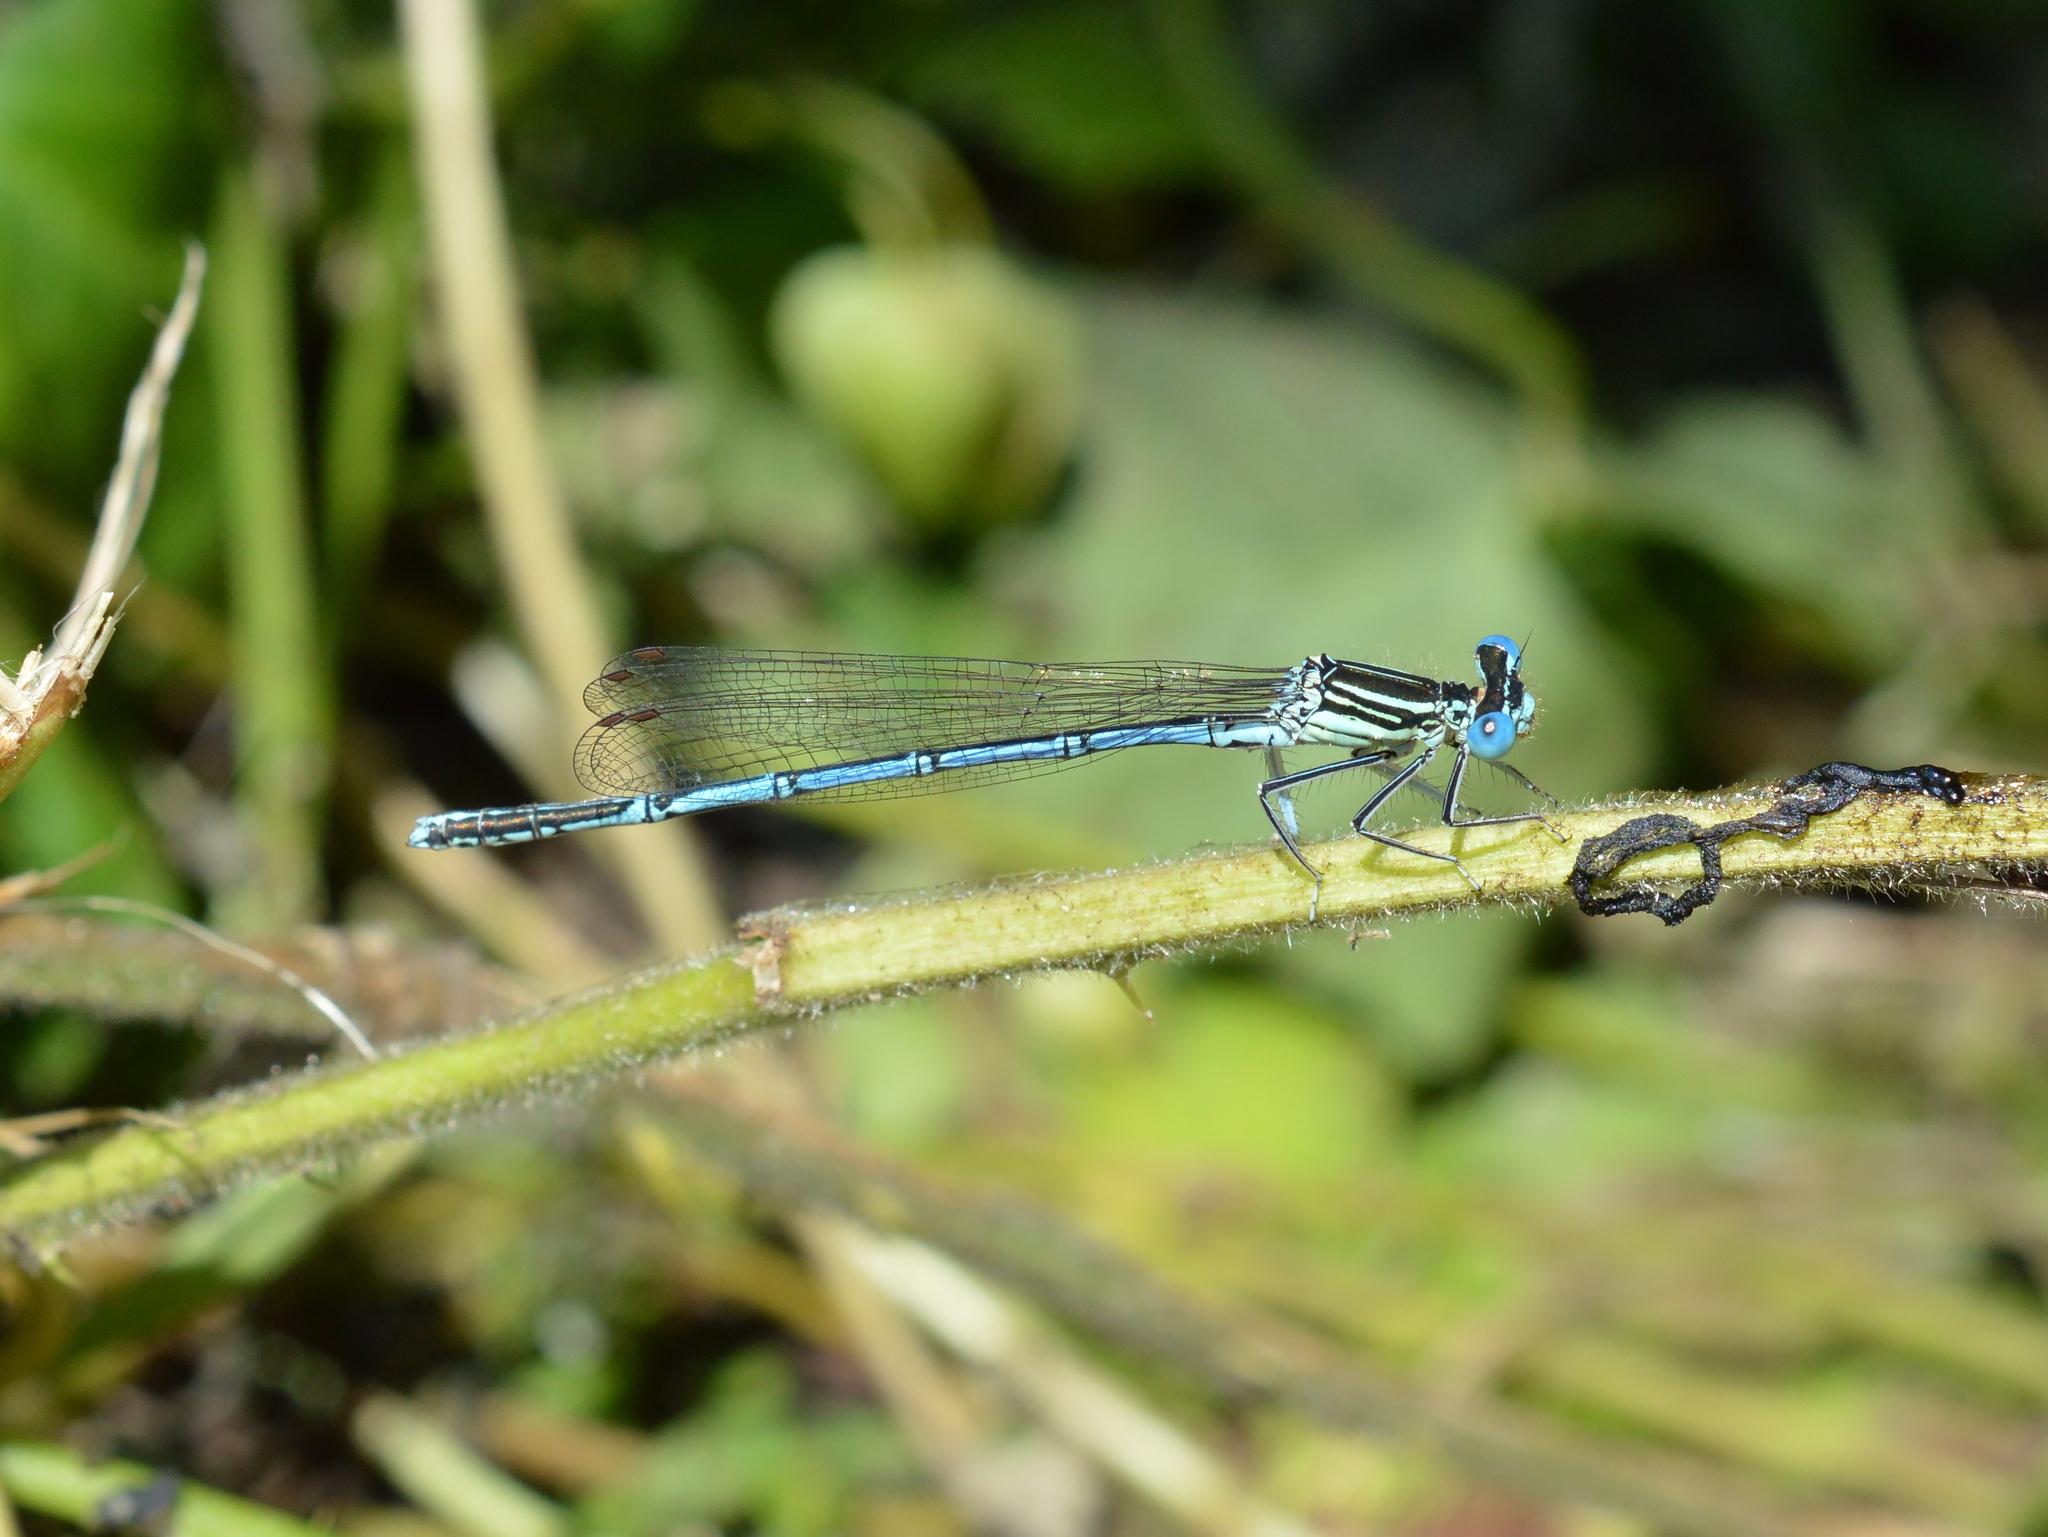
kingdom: Animalia
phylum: Arthropoda
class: Insecta
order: Odonata
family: Platycnemididae
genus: Platycnemis
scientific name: Platycnemis pennipes
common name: White-legged damselfly
